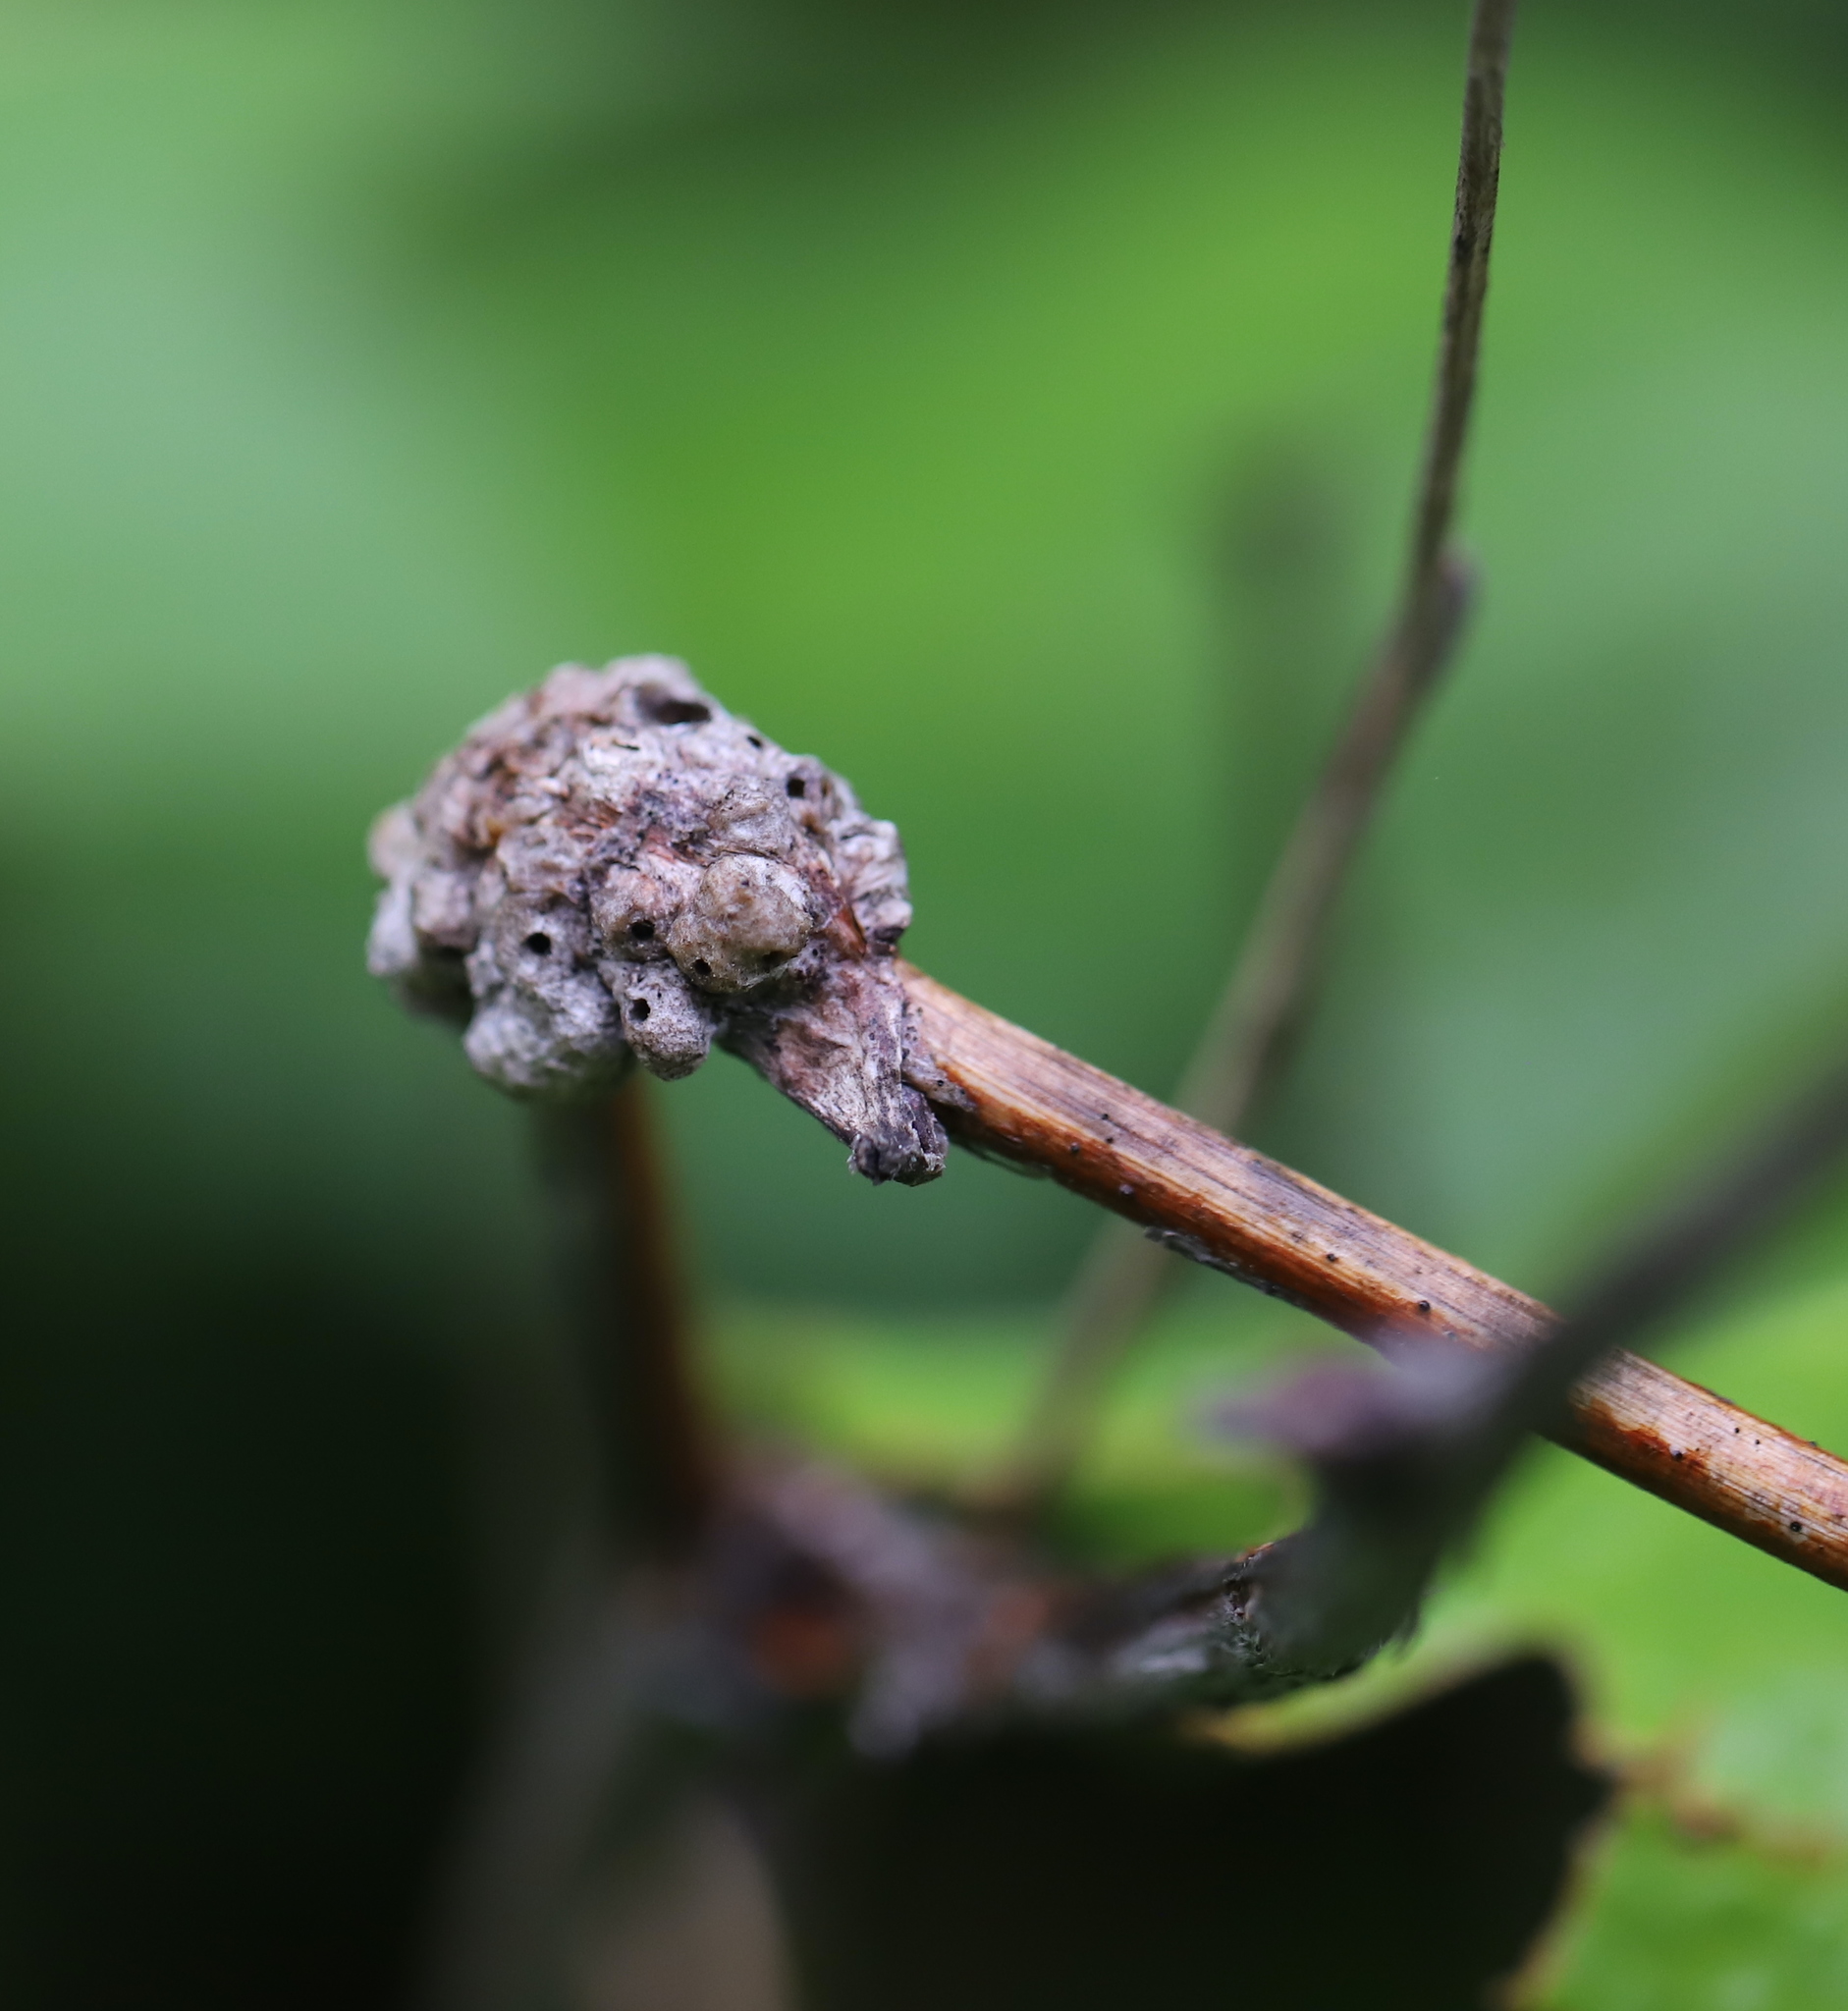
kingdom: Animalia
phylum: Arthropoda
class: Insecta
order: Hymenoptera
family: Cynipidae
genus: Diastrophus
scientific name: Diastrophus
